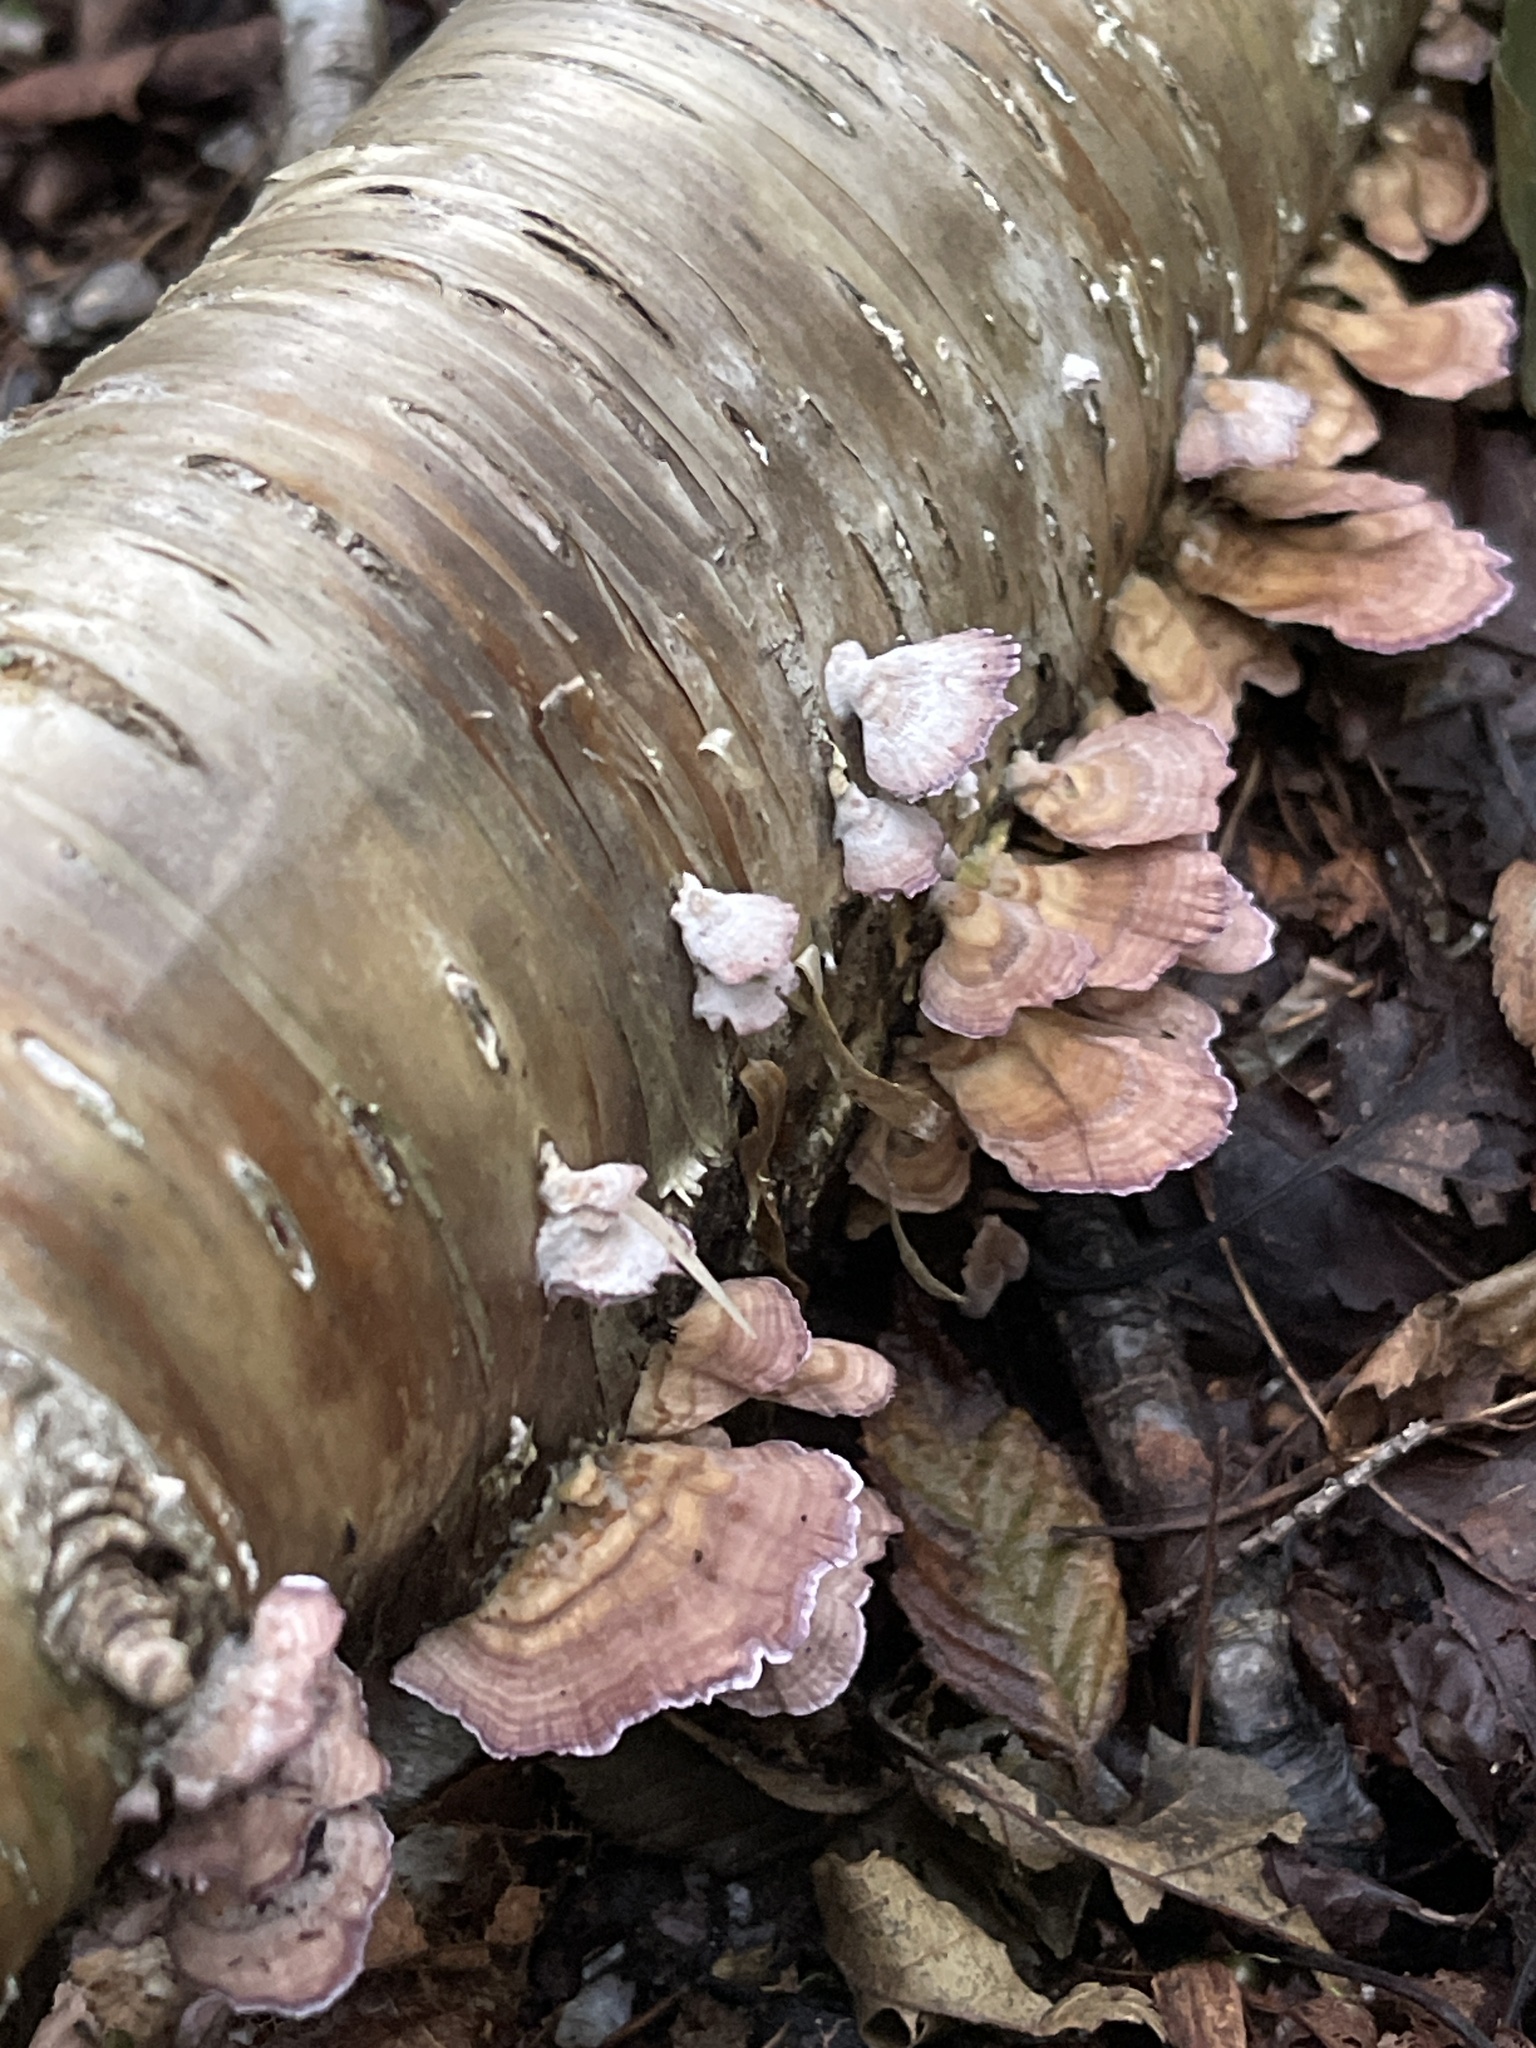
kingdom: Fungi
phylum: Basidiomycota
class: Agaricomycetes
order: Hymenochaetales
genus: Trichaptum
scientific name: Trichaptum biforme
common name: Violet-toothed polypore
